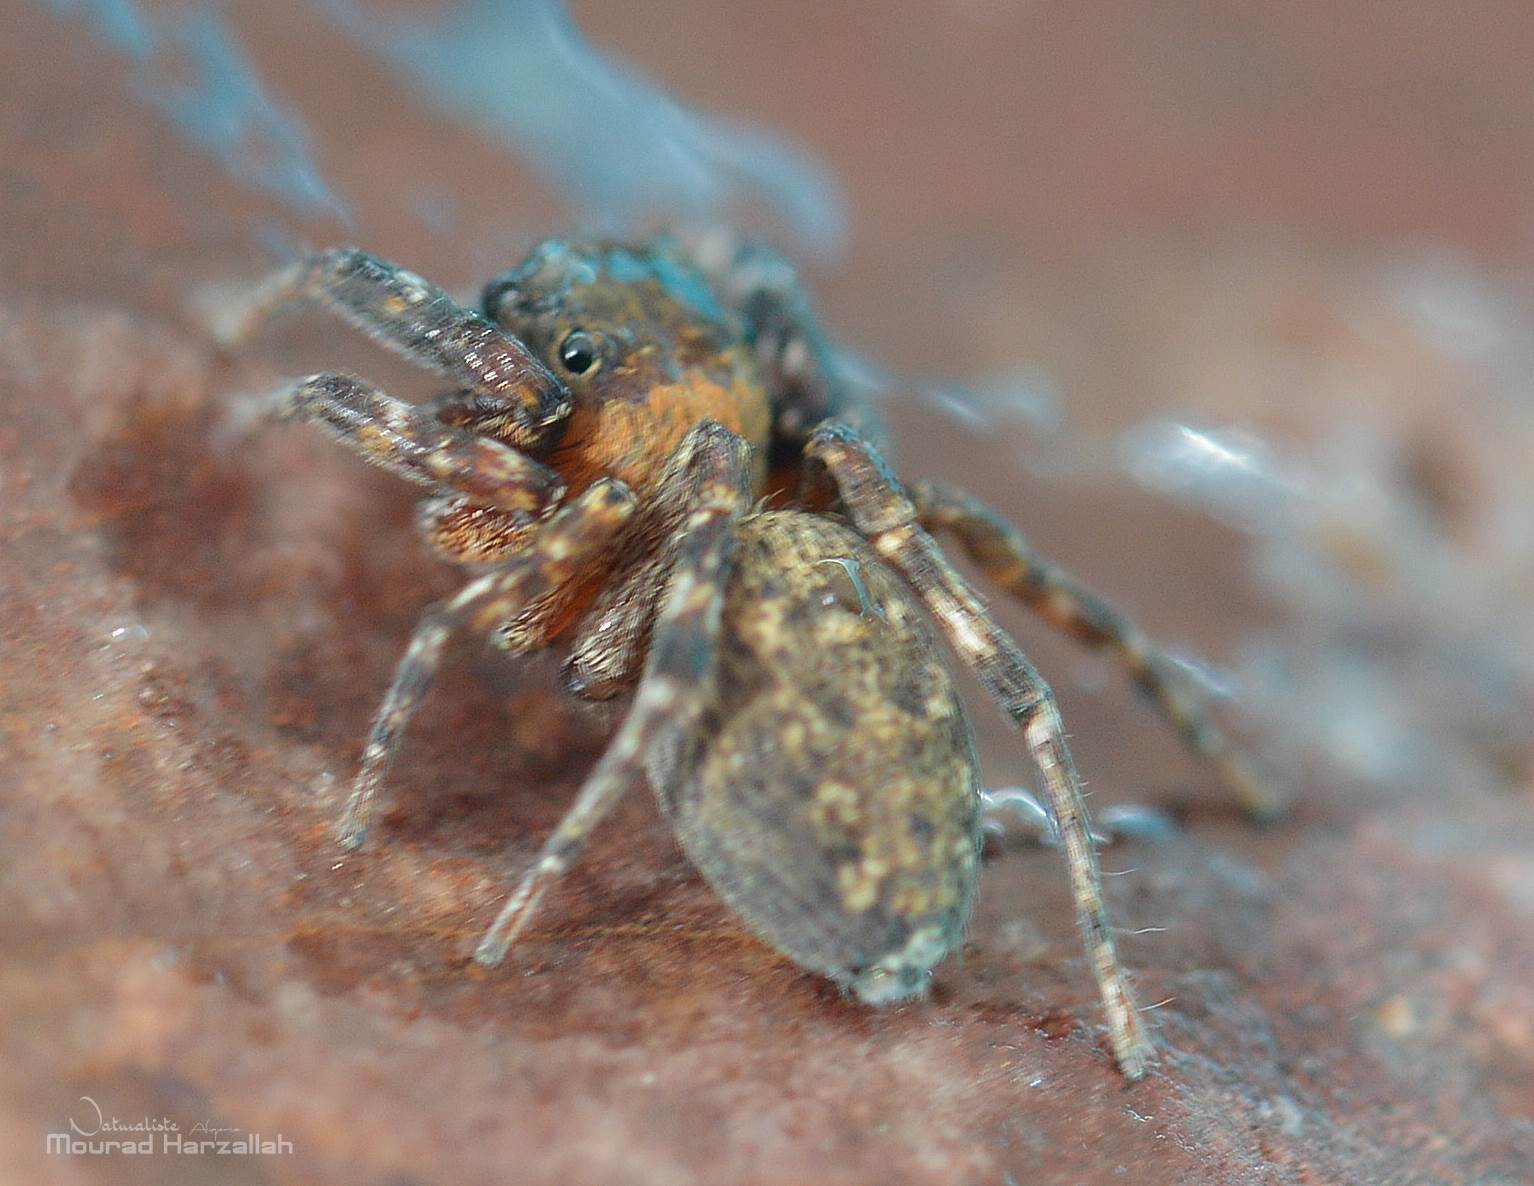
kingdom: Animalia
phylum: Arthropoda
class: Arachnida
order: Araneae
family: Salticidae
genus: Cyrba
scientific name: Cyrba algerina
